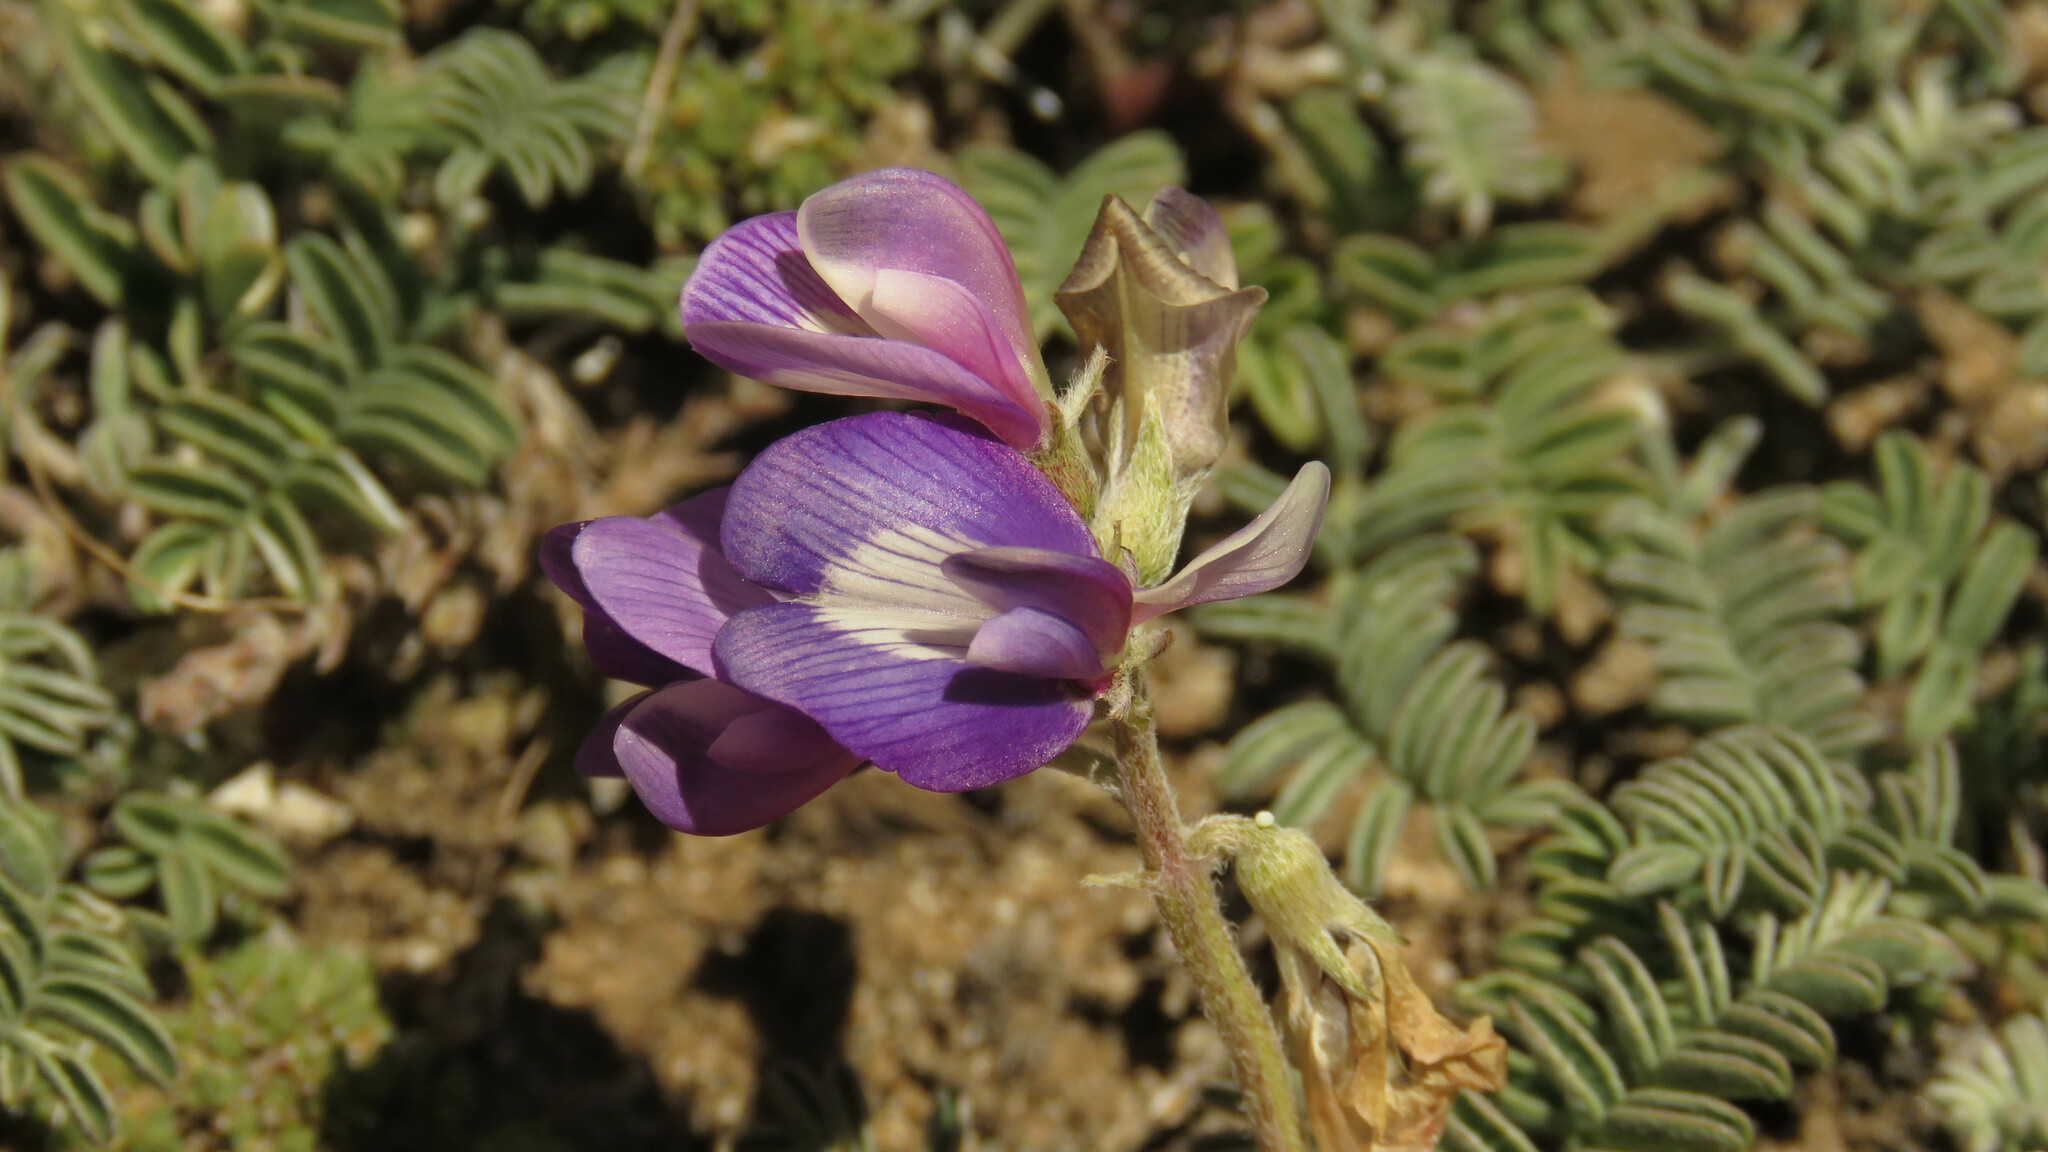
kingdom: Plantae
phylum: Tracheophyta
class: Magnoliopsida
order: Fabales
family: Fabaceae
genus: Astragalus
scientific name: Astragalus palenae
